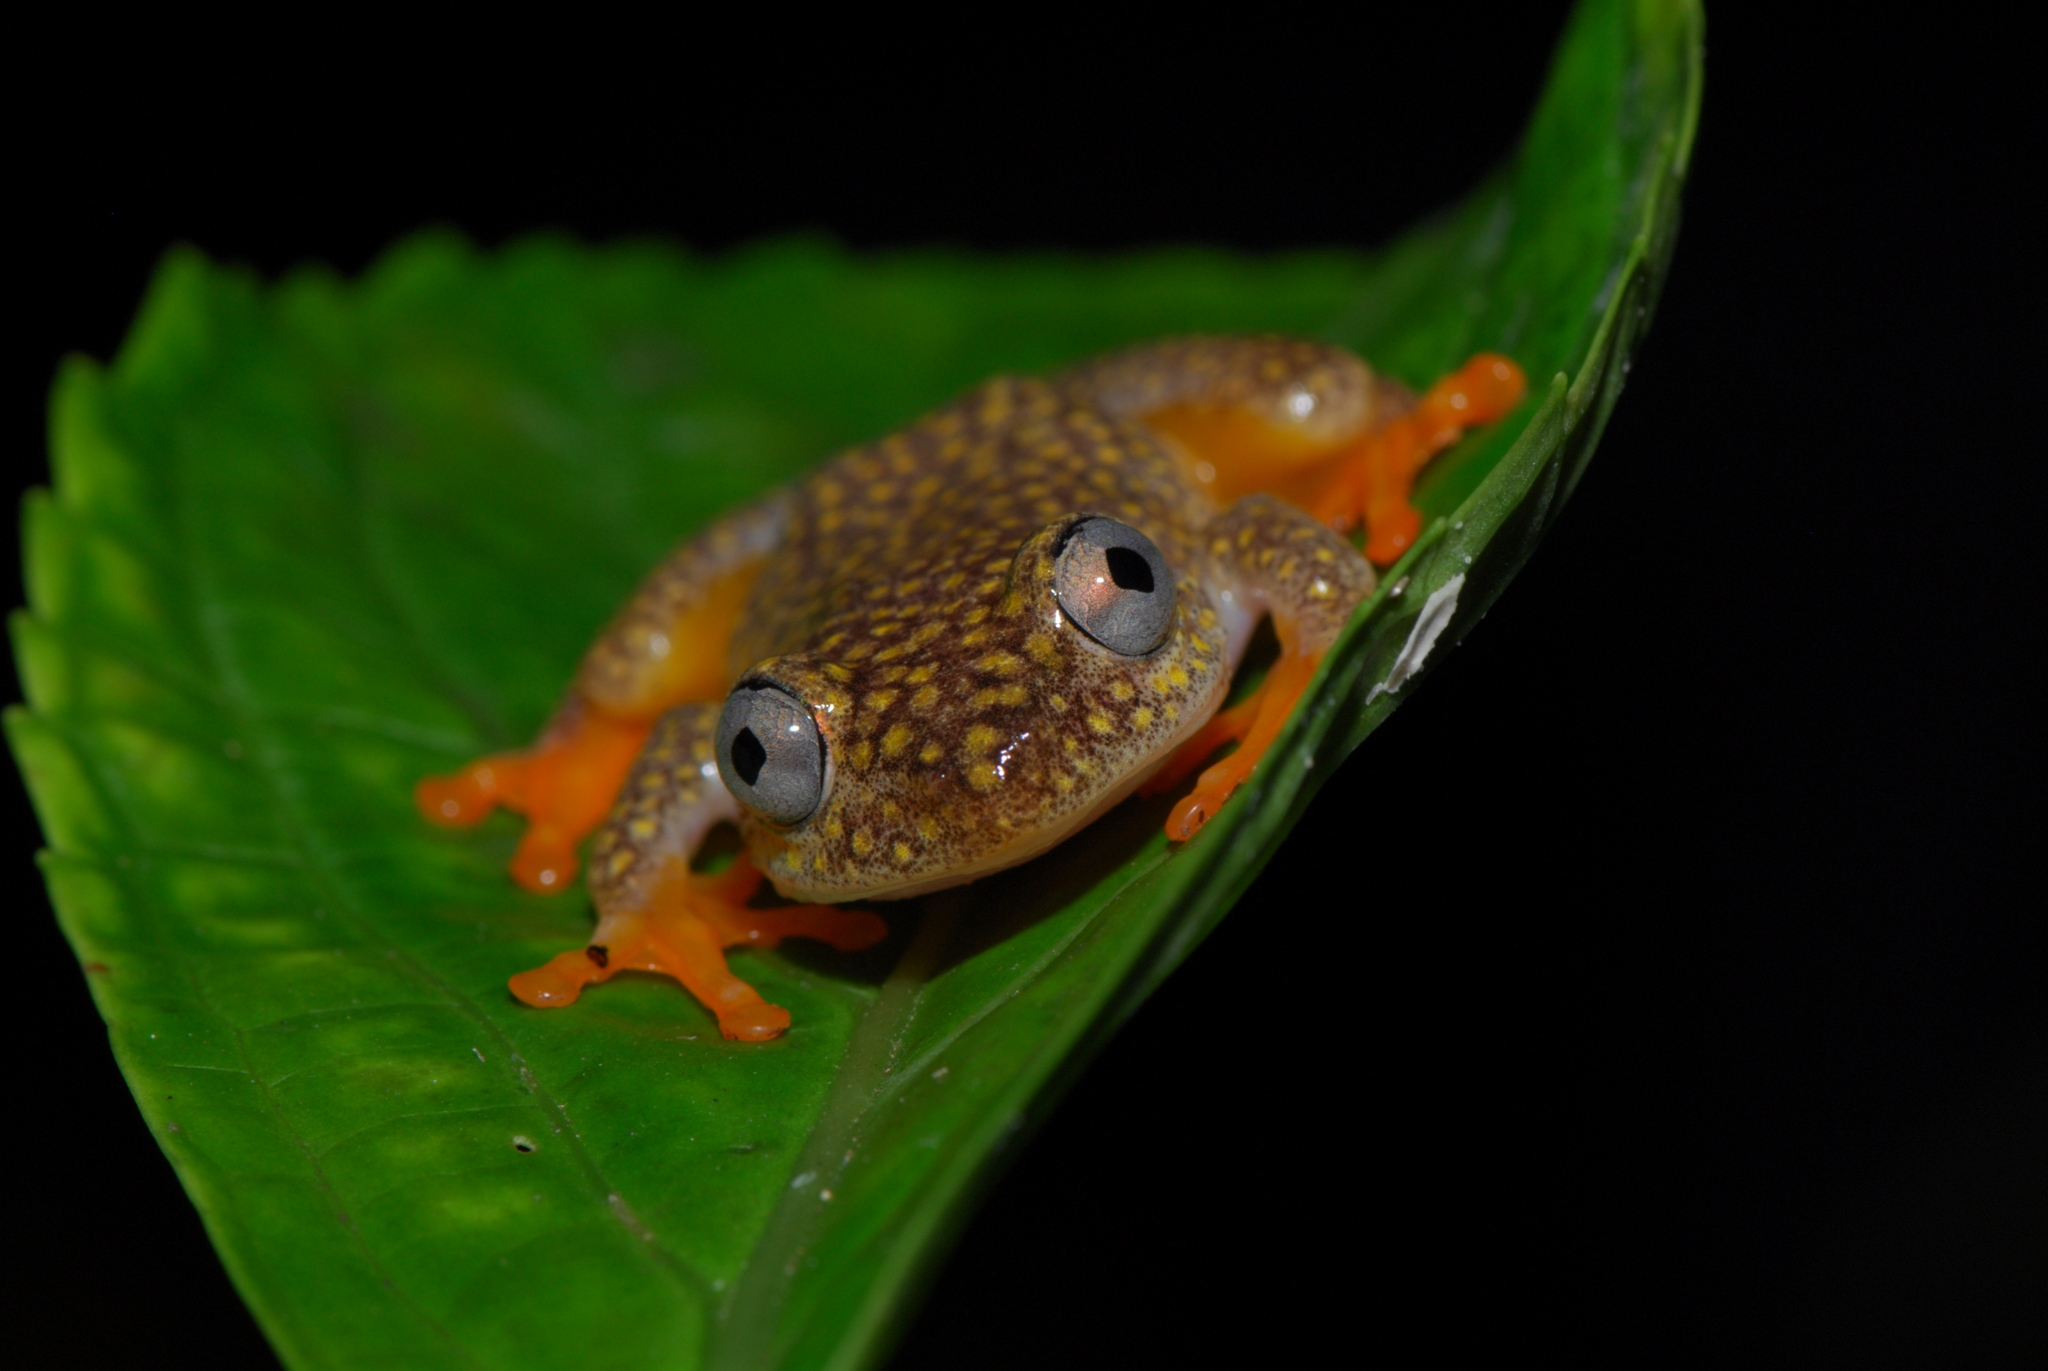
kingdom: Animalia
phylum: Chordata
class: Amphibia
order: Anura
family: Hyperoliidae
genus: Heterixalus
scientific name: Heterixalus alboguttatus
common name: Whitebelly reed frog
